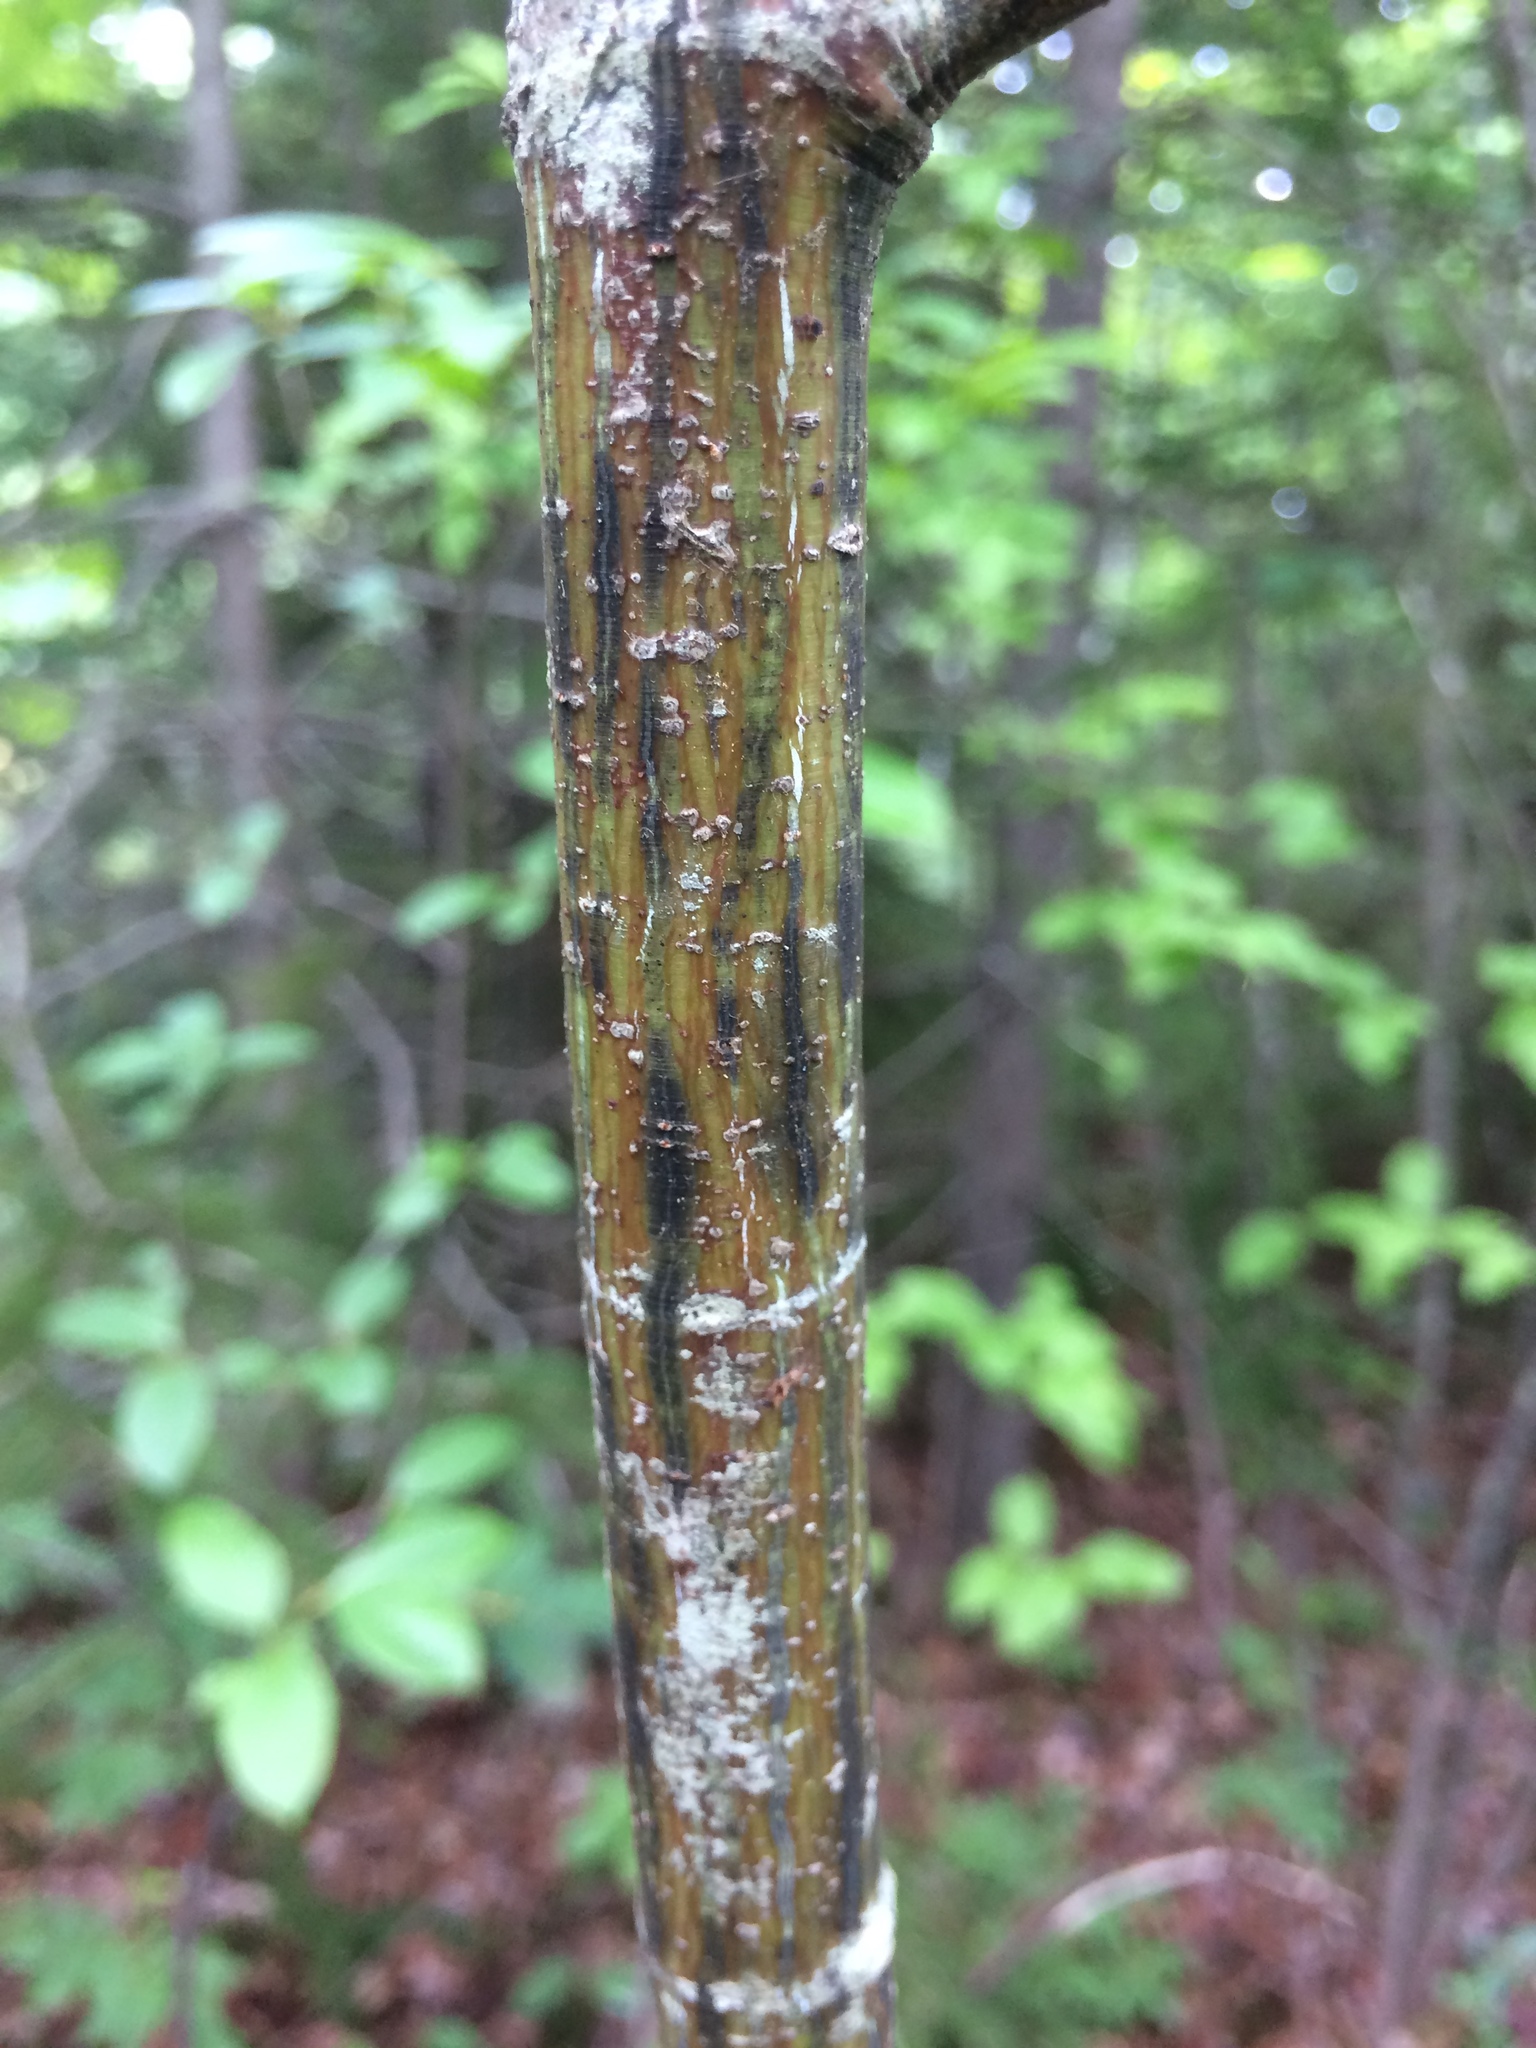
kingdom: Plantae
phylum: Tracheophyta
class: Magnoliopsida
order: Sapindales
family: Sapindaceae
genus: Acer
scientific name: Acer pensylvanicum
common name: Moosewood
